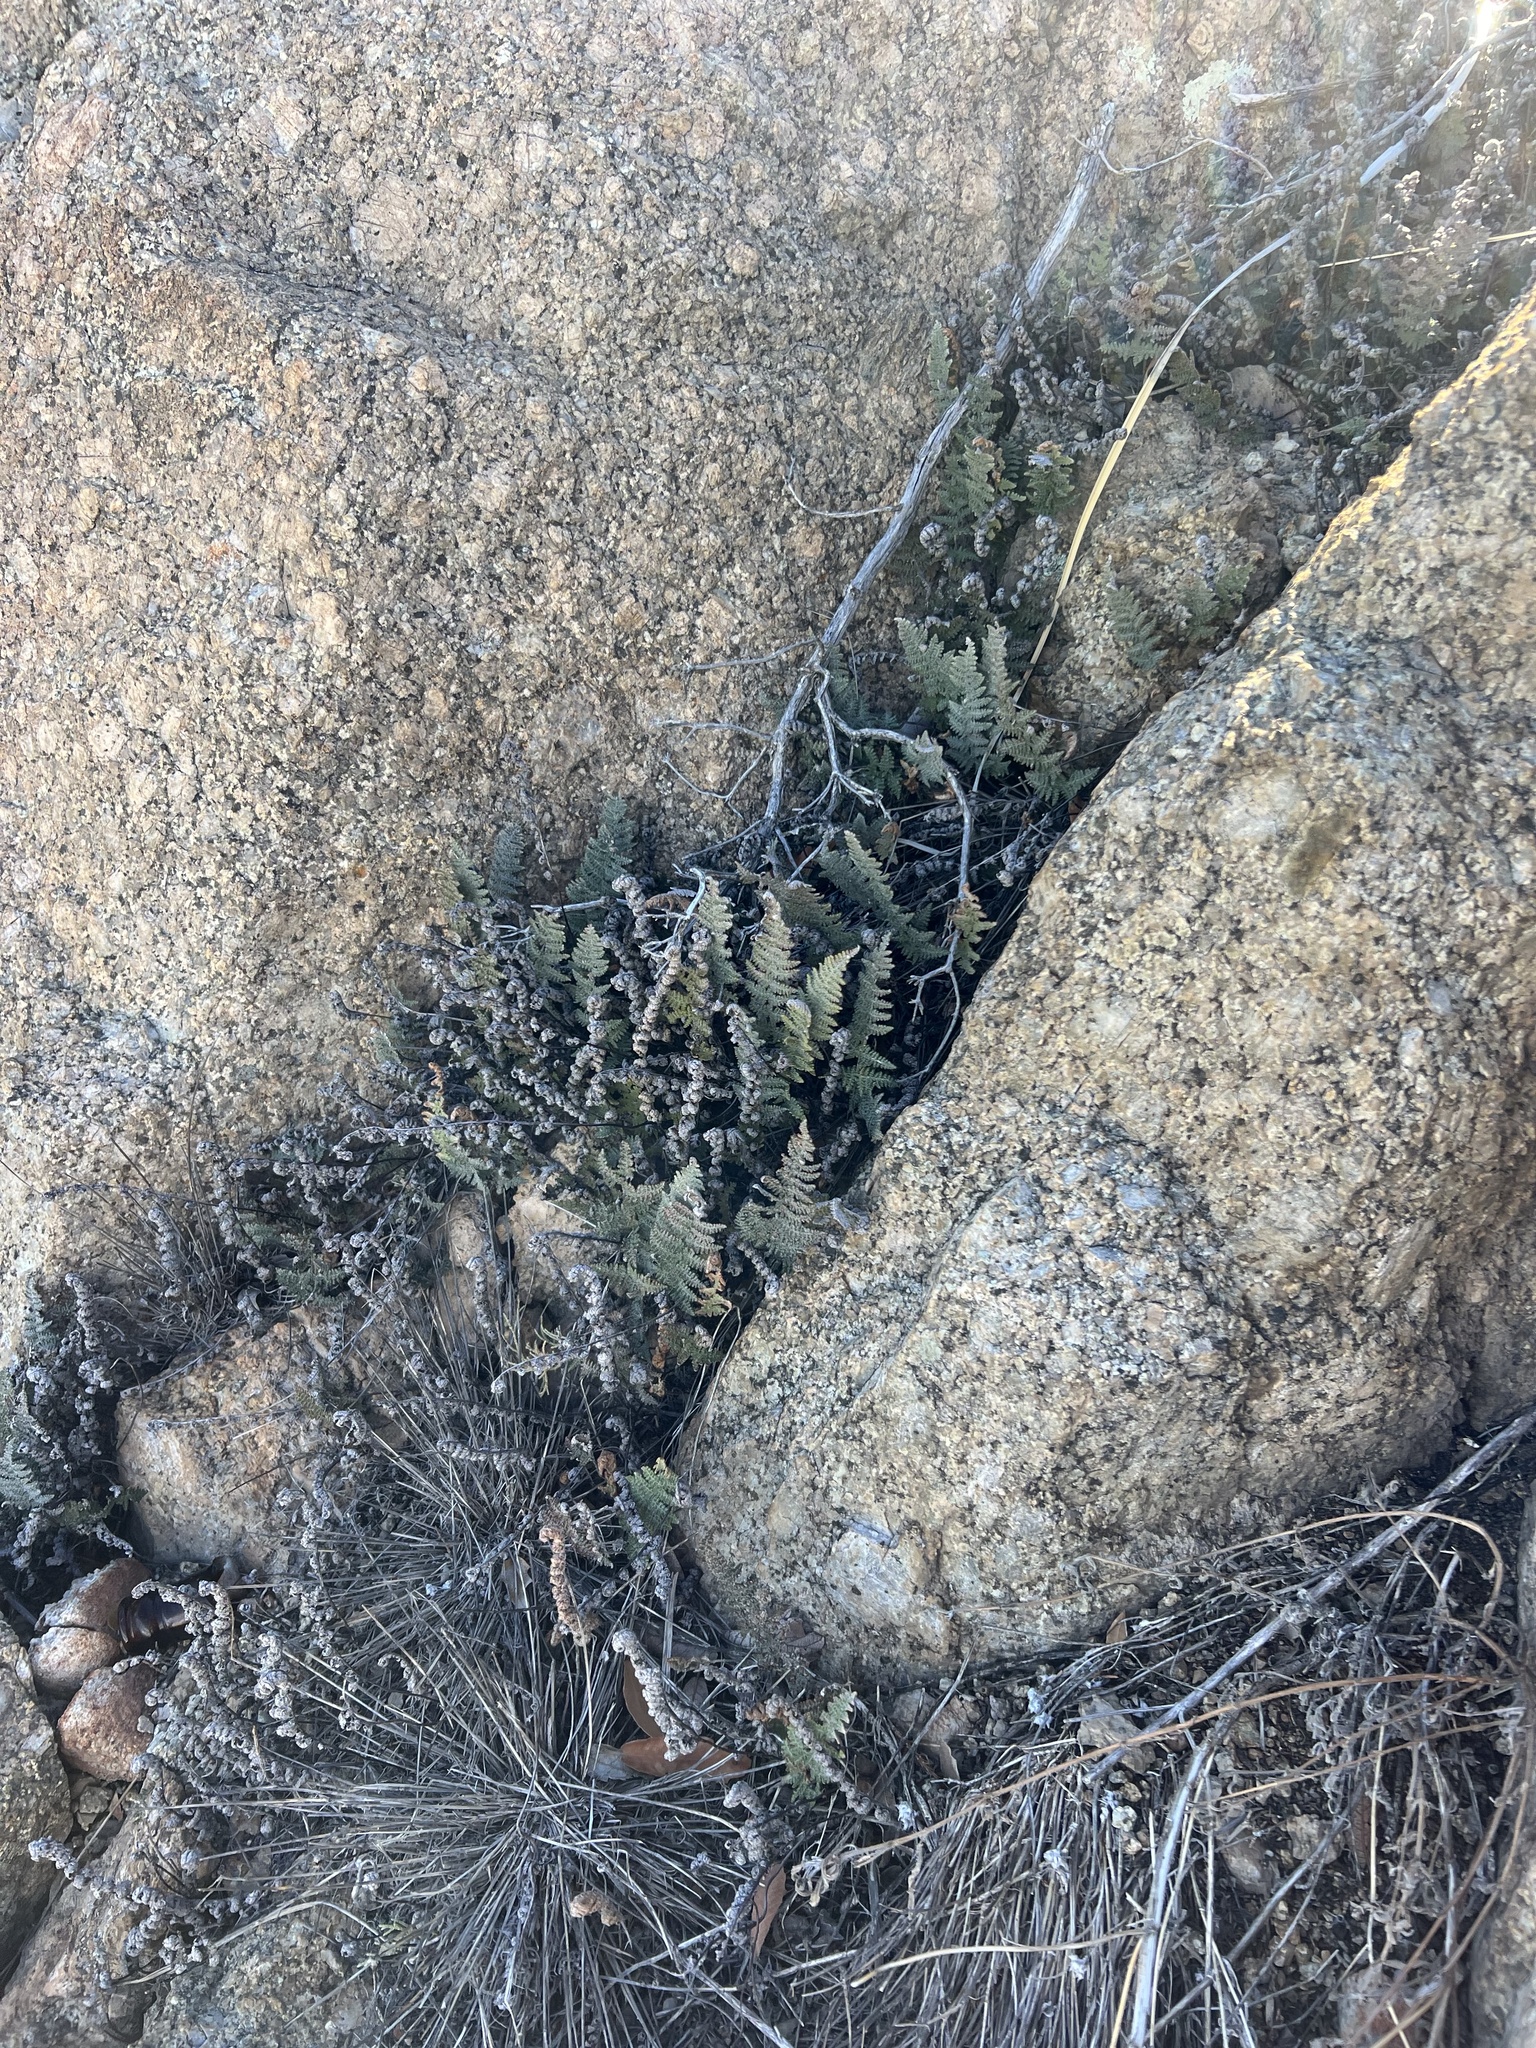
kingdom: Plantae
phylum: Tracheophyta
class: Polypodiopsida
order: Polypodiales
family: Pteridaceae
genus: Myriopteris
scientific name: Myriopteris lindheimeri
